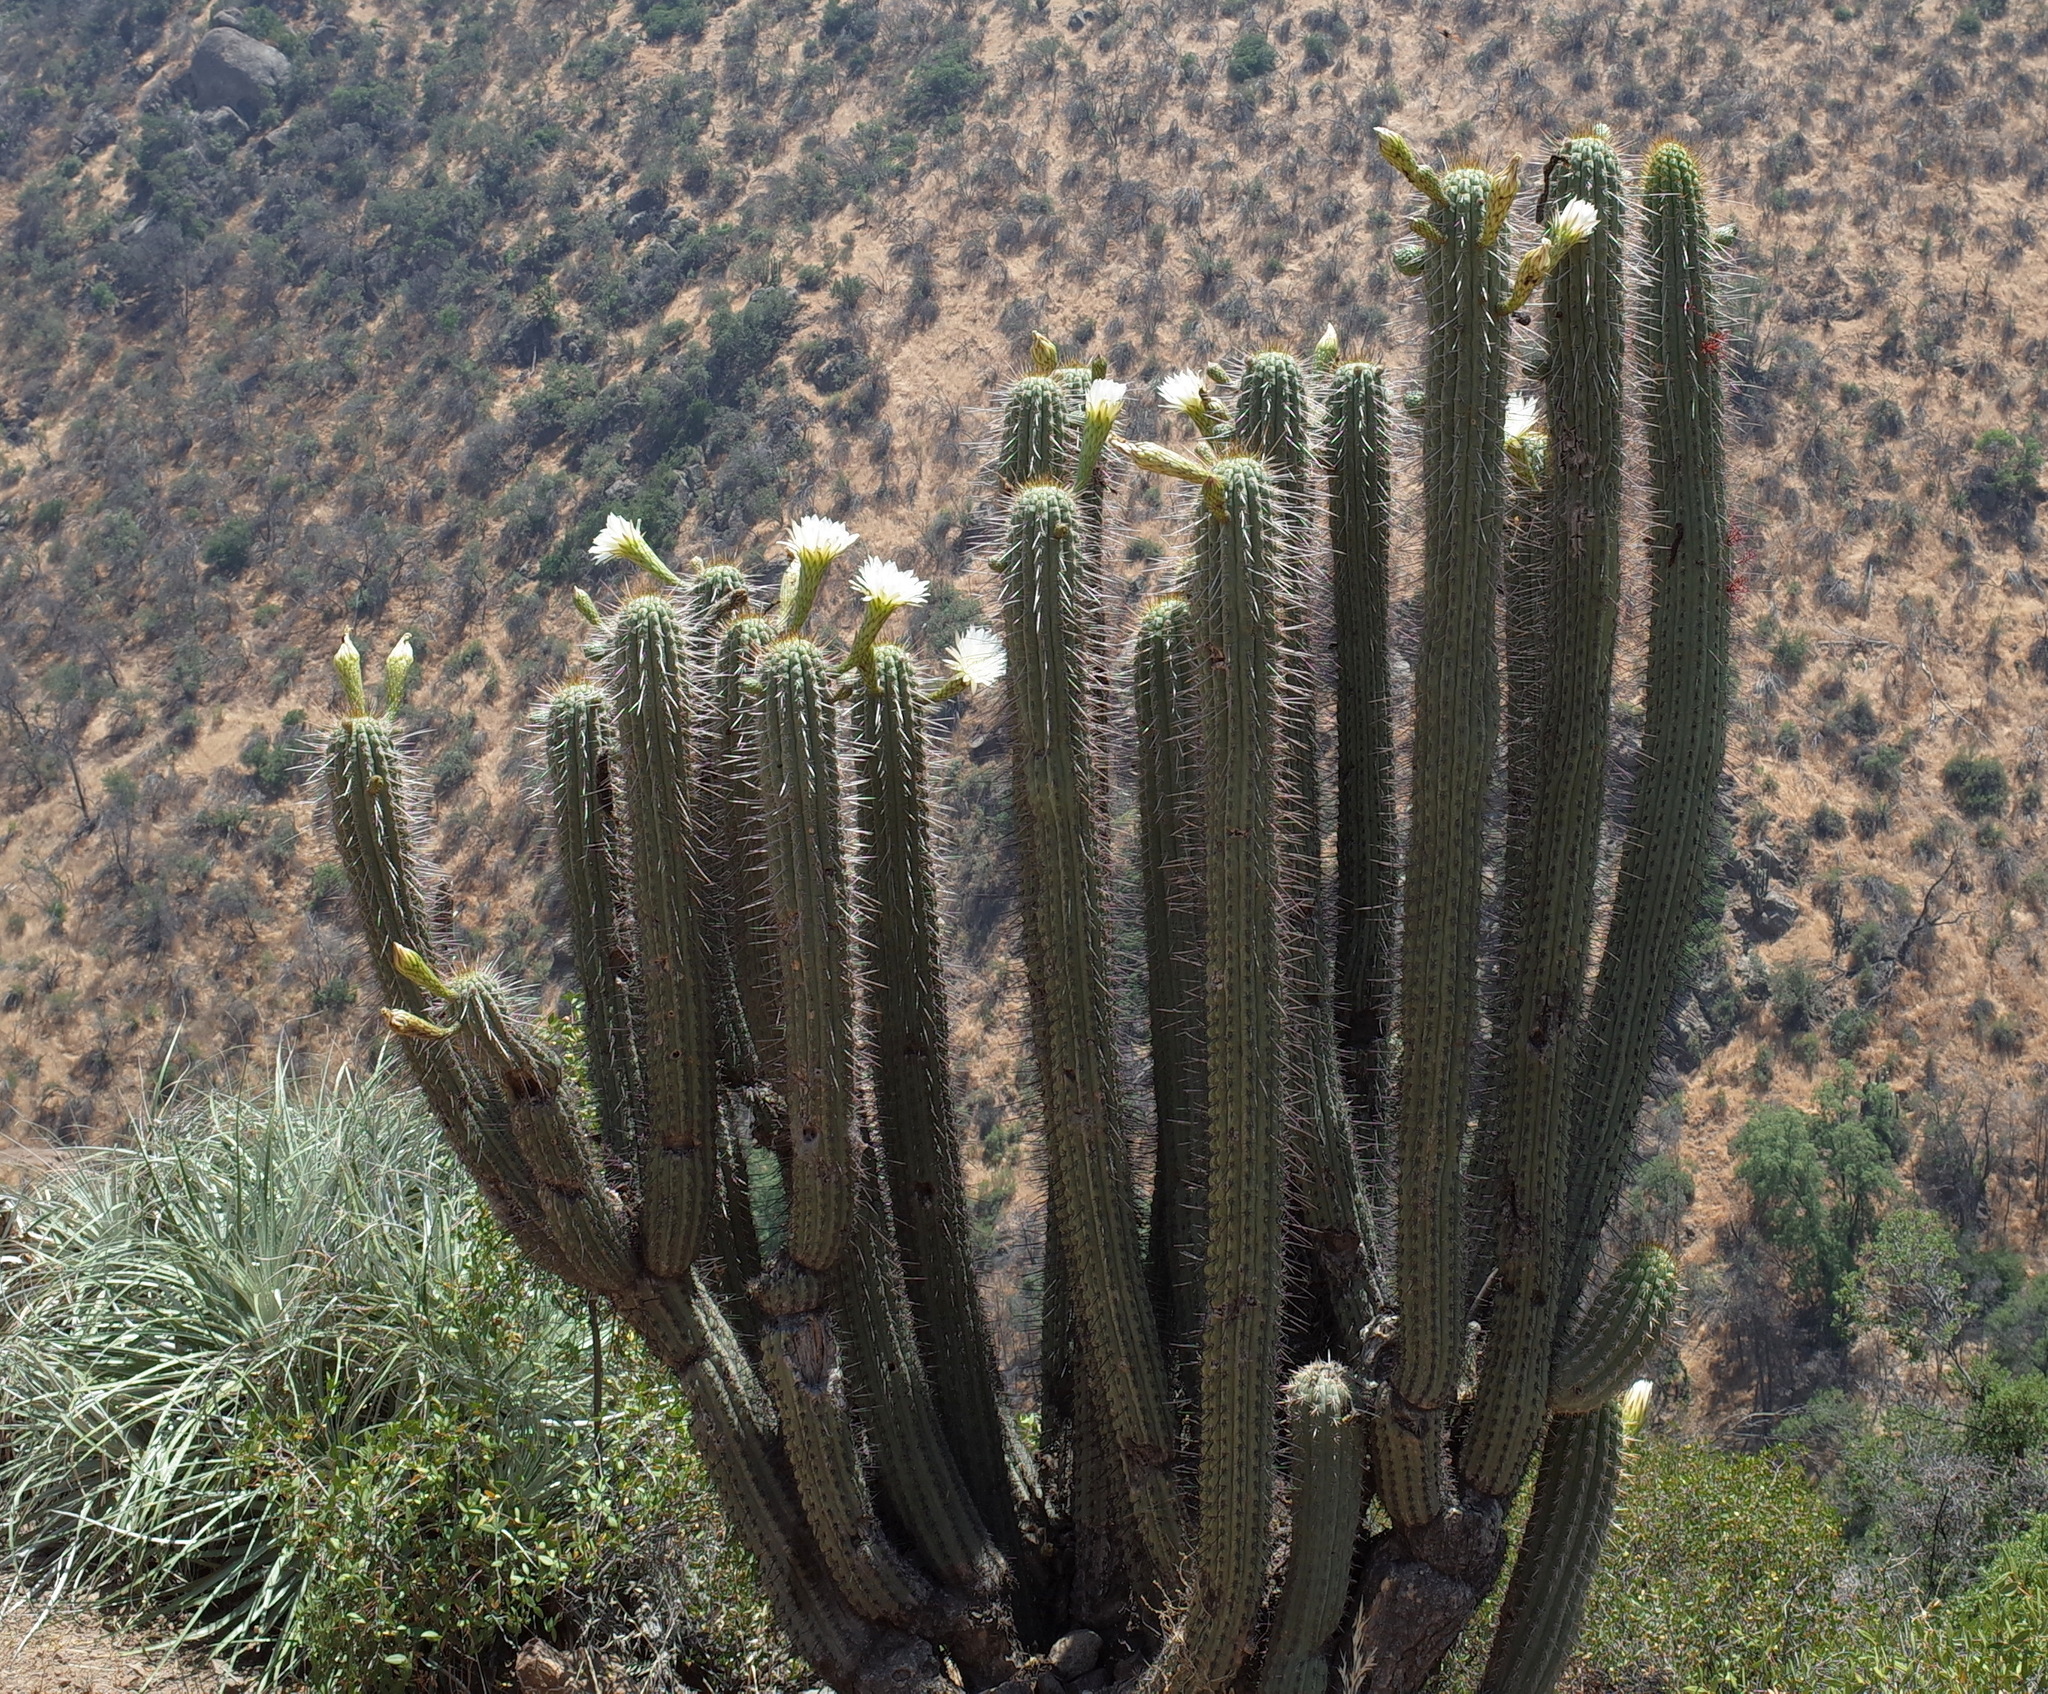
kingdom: Plantae
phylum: Tracheophyta
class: Magnoliopsida
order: Caryophyllales
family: Cactaceae
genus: Leucostele
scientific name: Leucostele chiloensis
